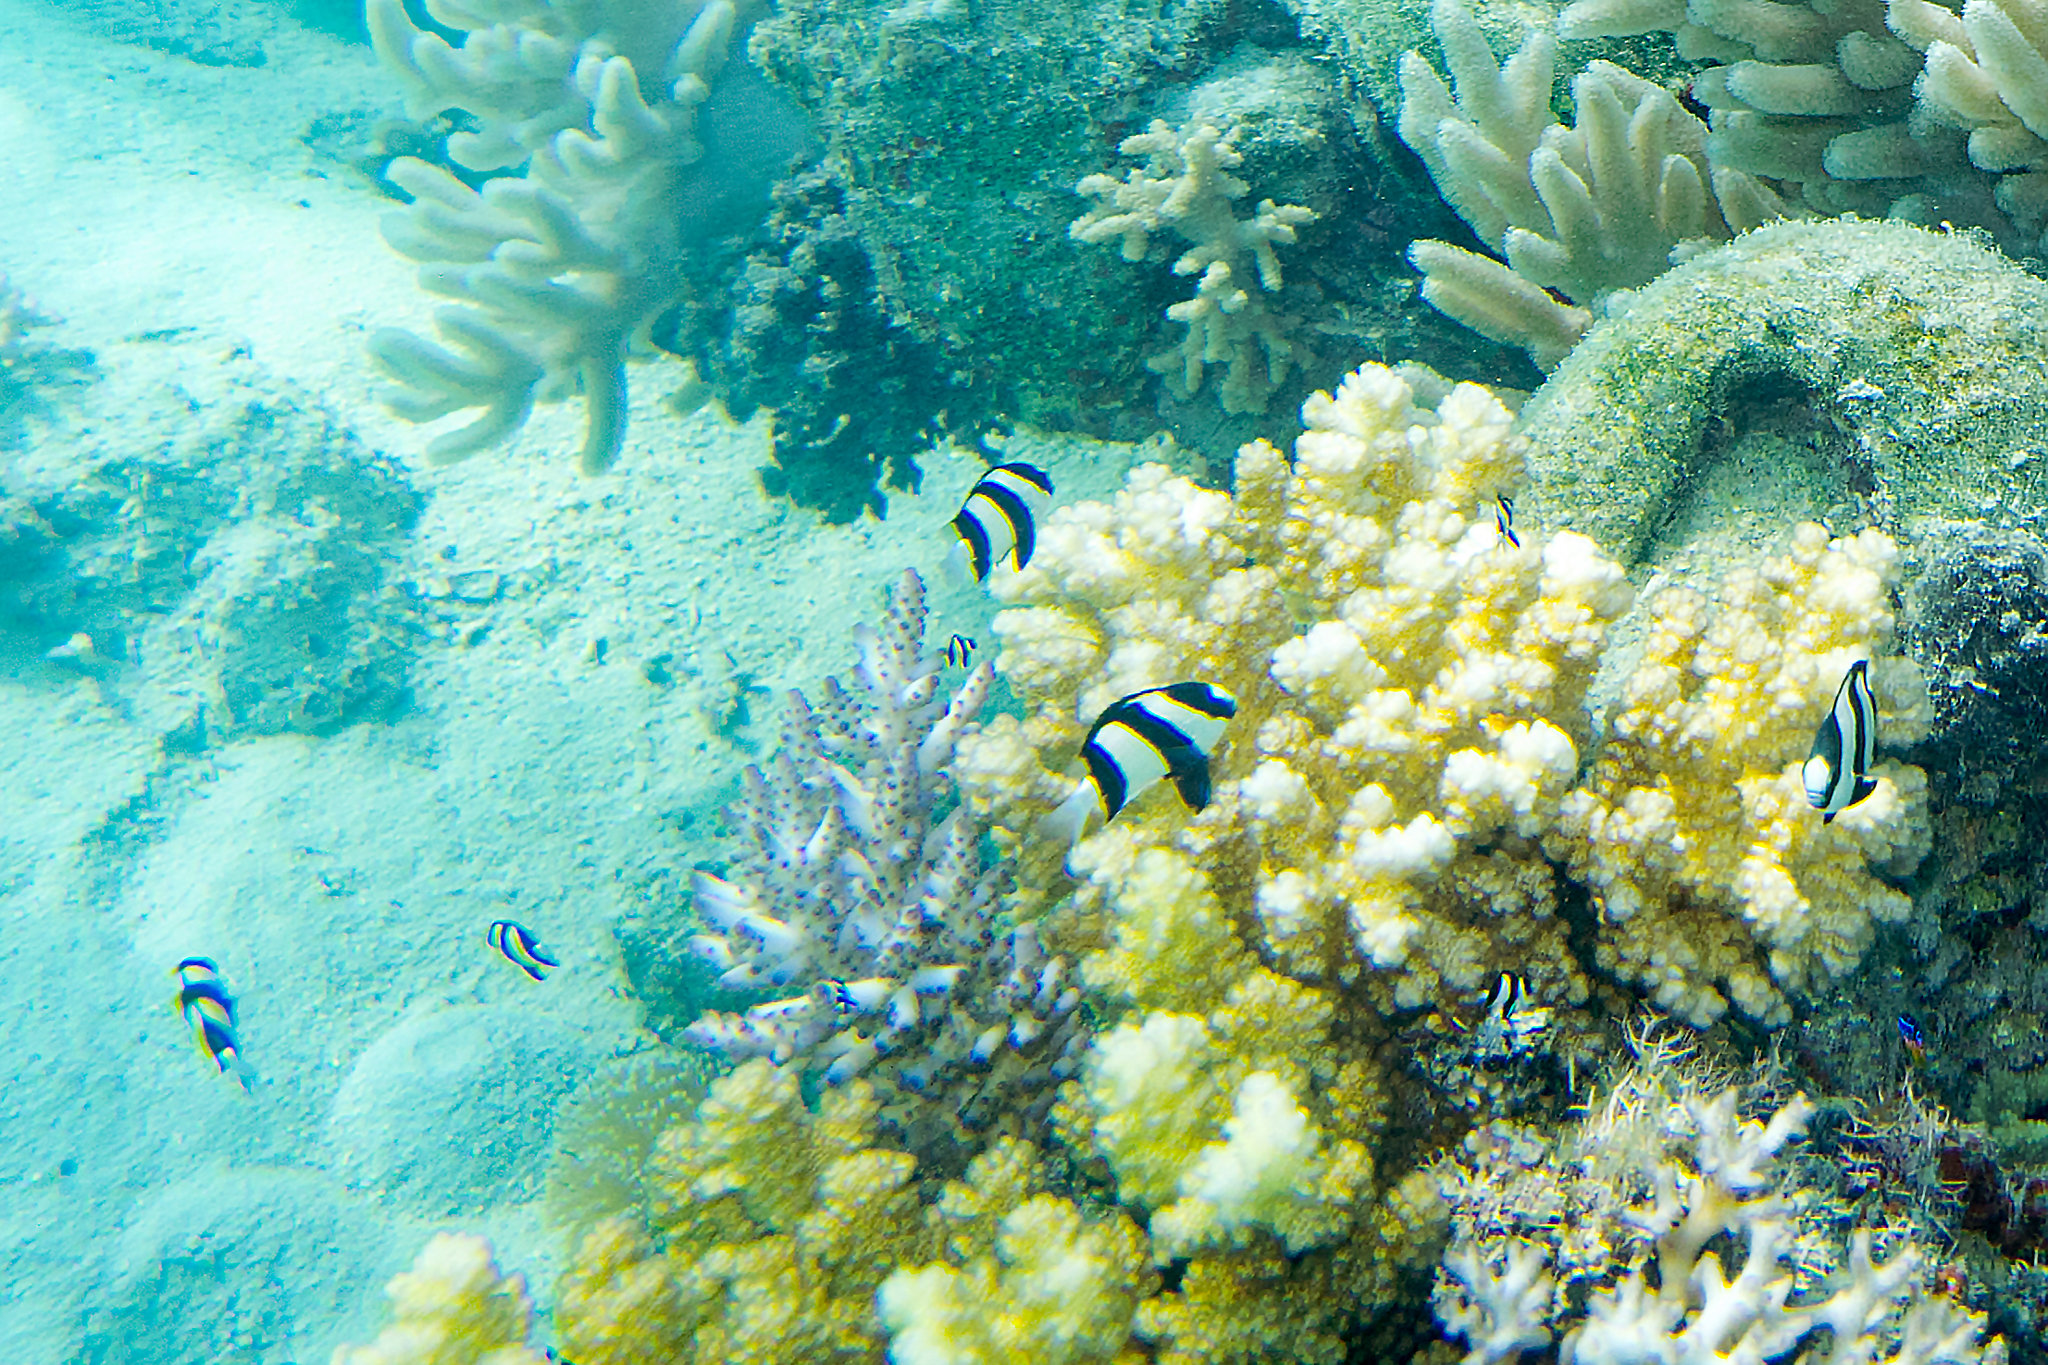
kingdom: Animalia
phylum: Chordata
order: Perciformes
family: Pomacentridae
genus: Dascyllus
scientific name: Dascyllus aruanus
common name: Humbug dascyllus
